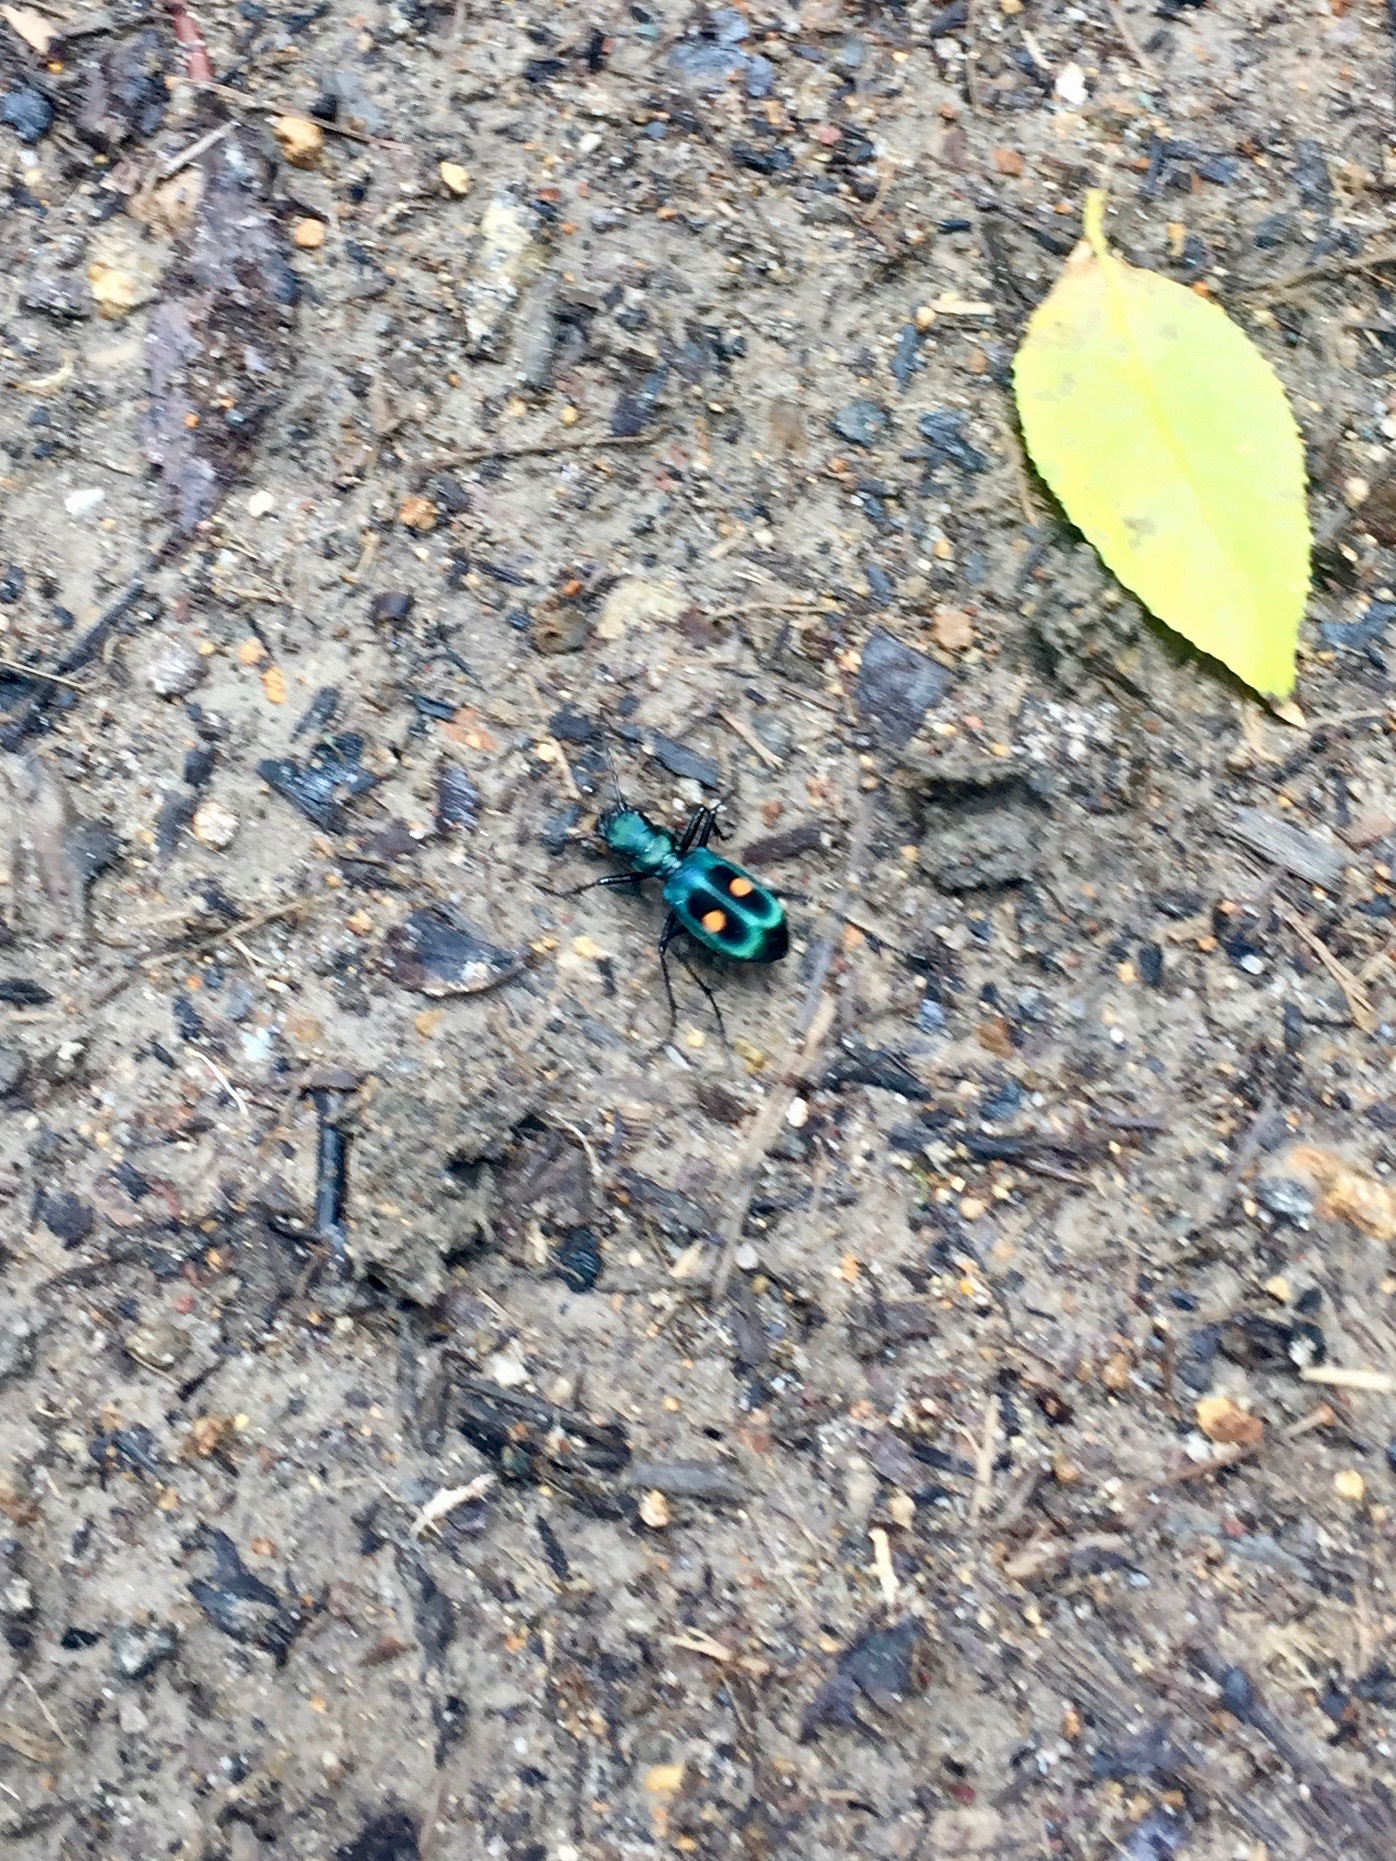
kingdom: Animalia
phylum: Arthropoda
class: Insecta
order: Coleoptera
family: Carabidae
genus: Pseudoxycheila
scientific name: Pseudoxycheila bipustulata
